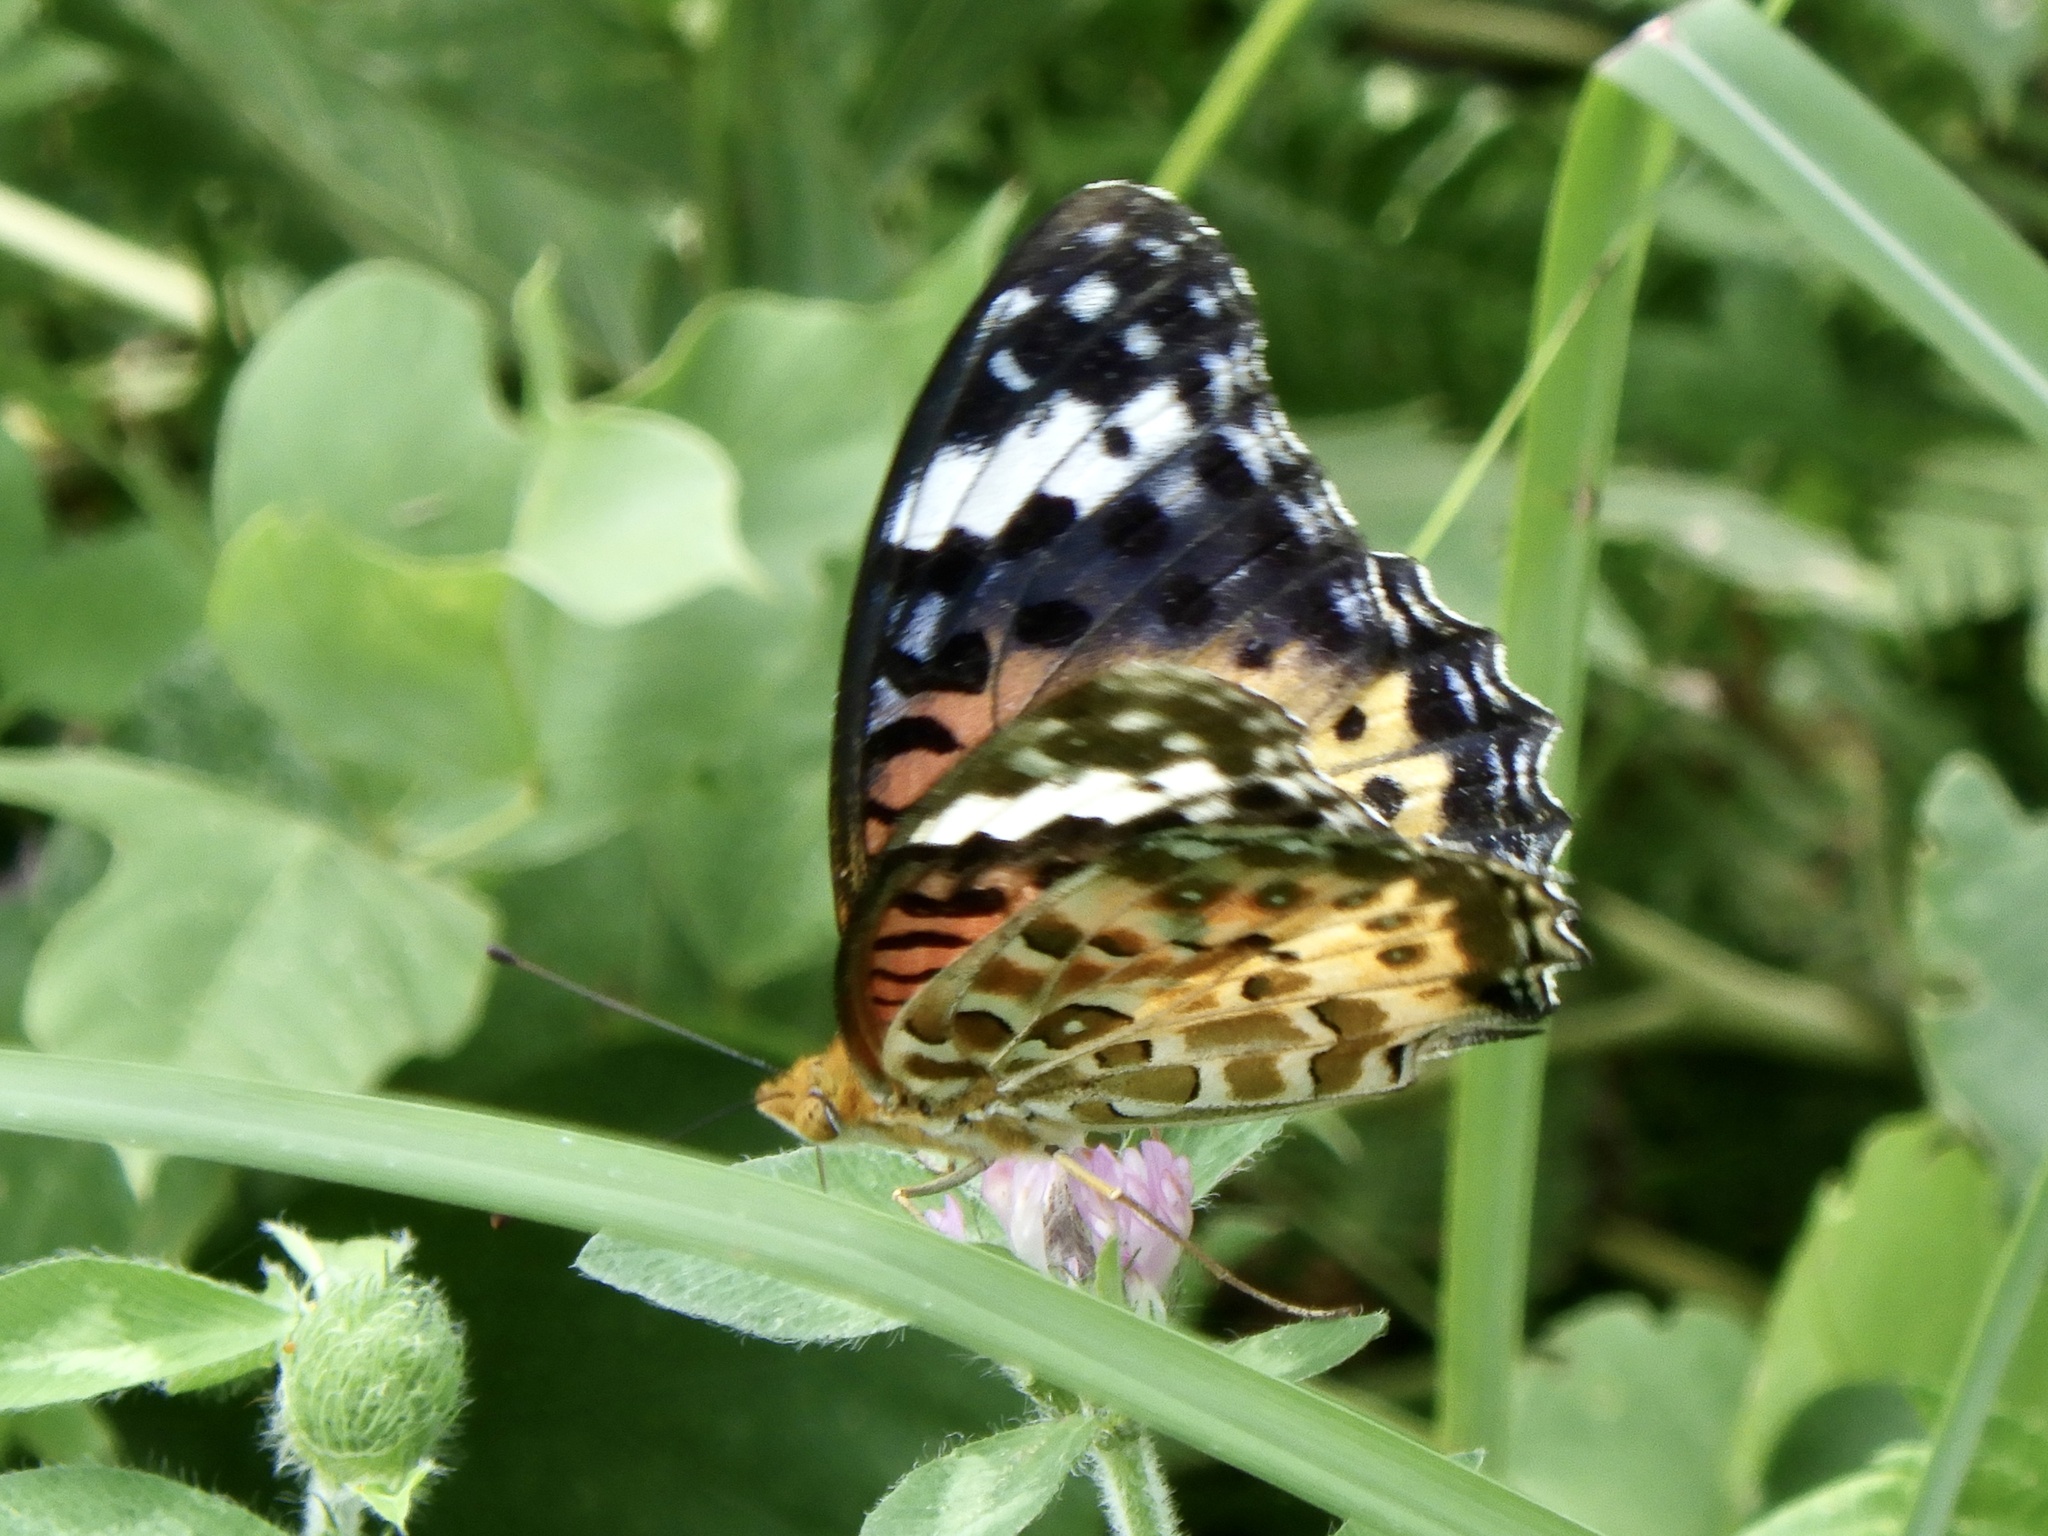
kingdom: Animalia
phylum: Arthropoda
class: Insecta
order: Lepidoptera
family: Nymphalidae
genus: Argynnis
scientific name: Argynnis hyperbius
